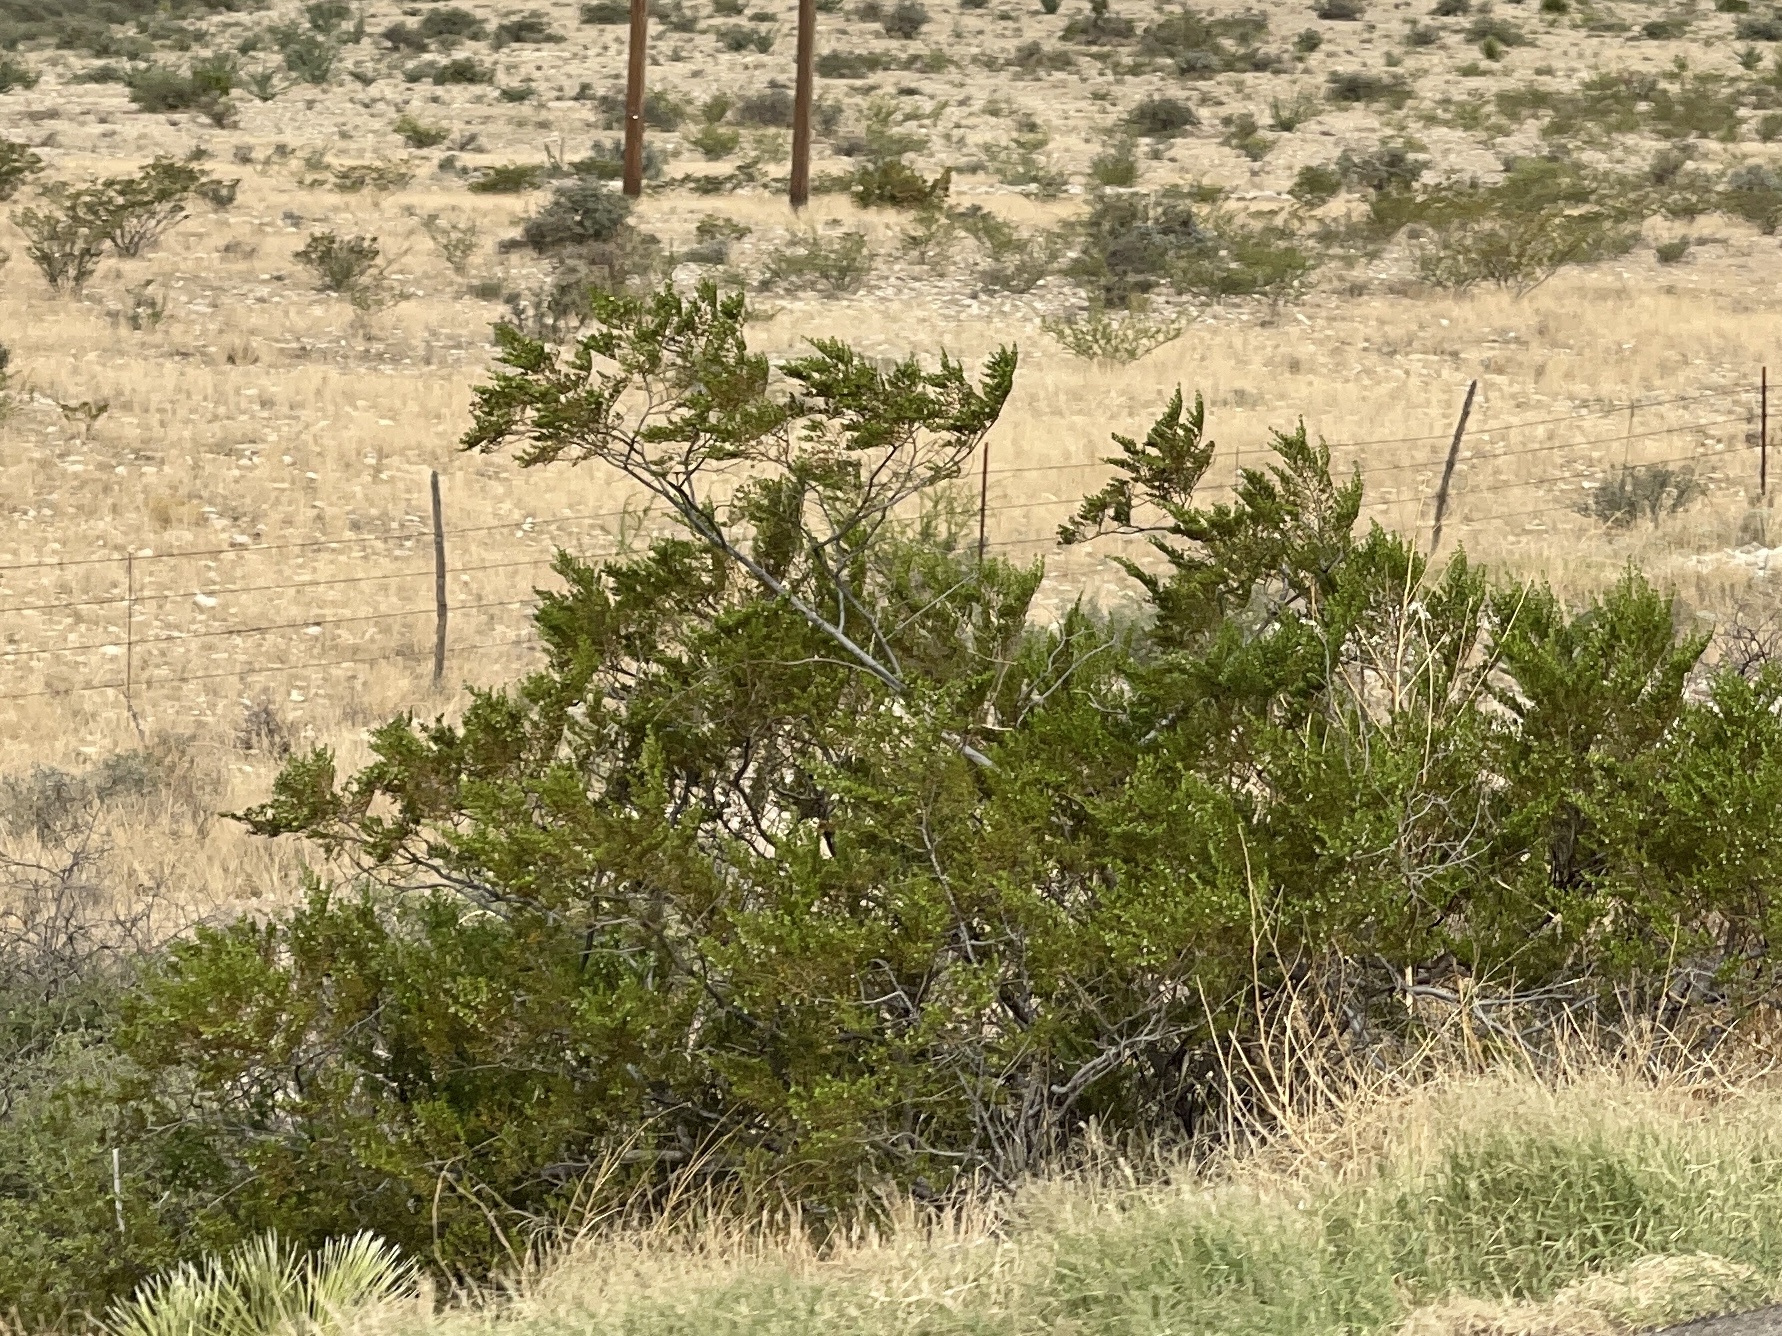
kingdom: Plantae
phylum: Tracheophyta
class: Magnoliopsida
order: Zygophyllales
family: Zygophyllaceae
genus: Larrea
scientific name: Larrea tridentata
